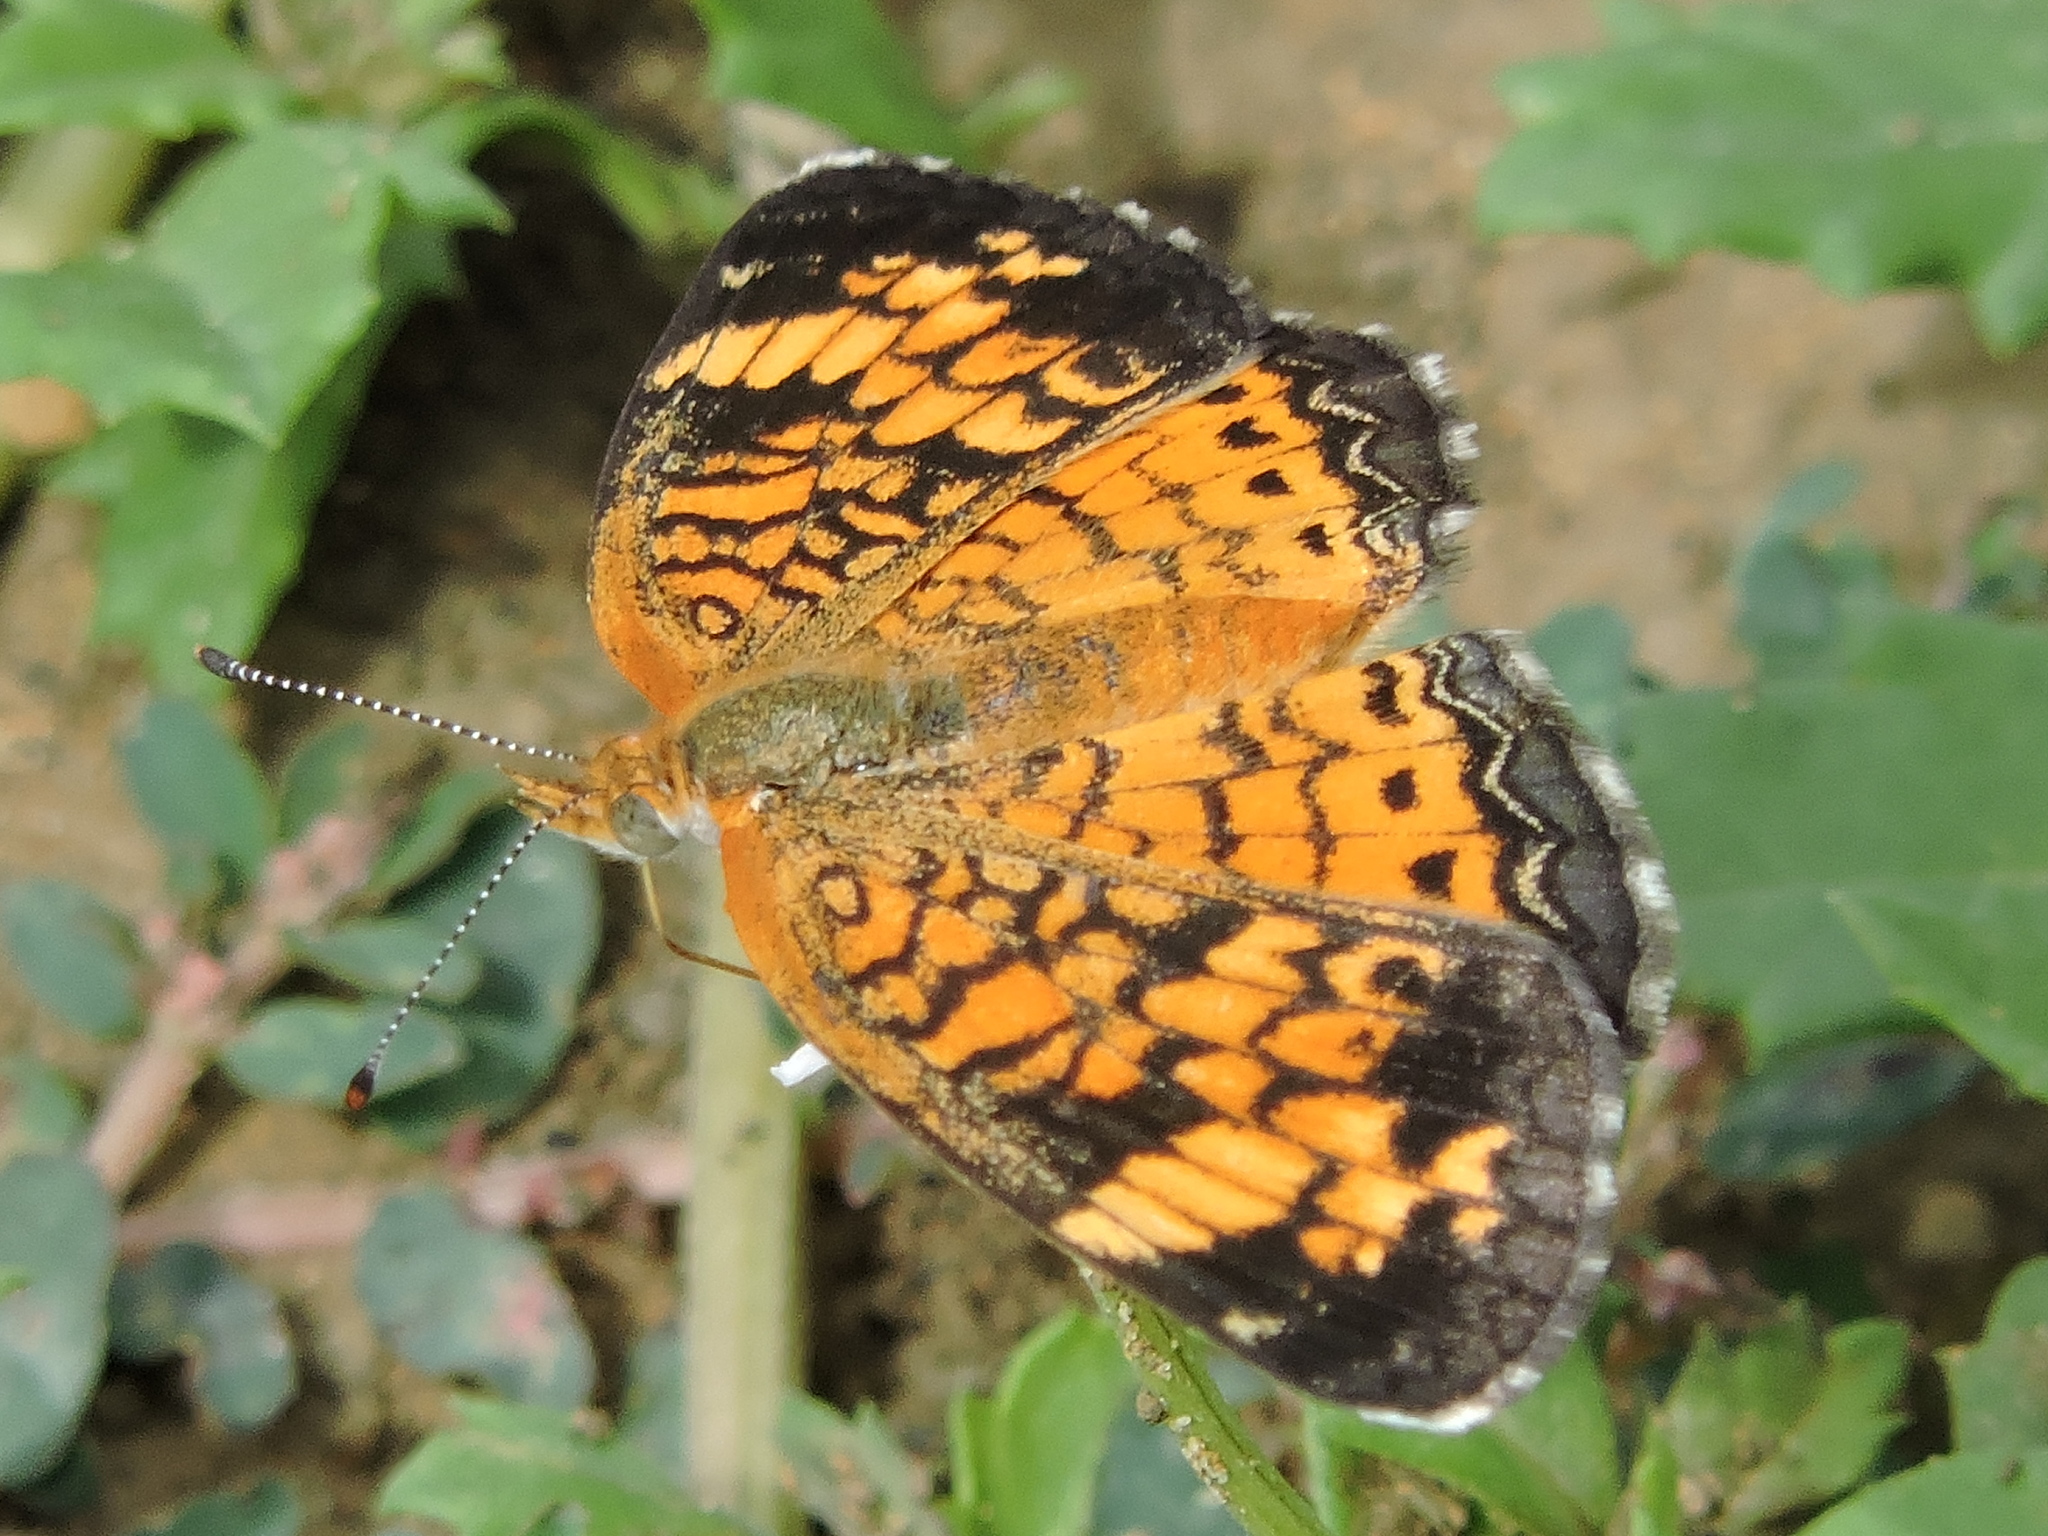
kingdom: Animalia
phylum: Arthropoda
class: Insecta
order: Lepidoptera
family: Nymphalidae
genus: Phyciodes
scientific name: Phyciodes tharos
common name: Pearl crescent
